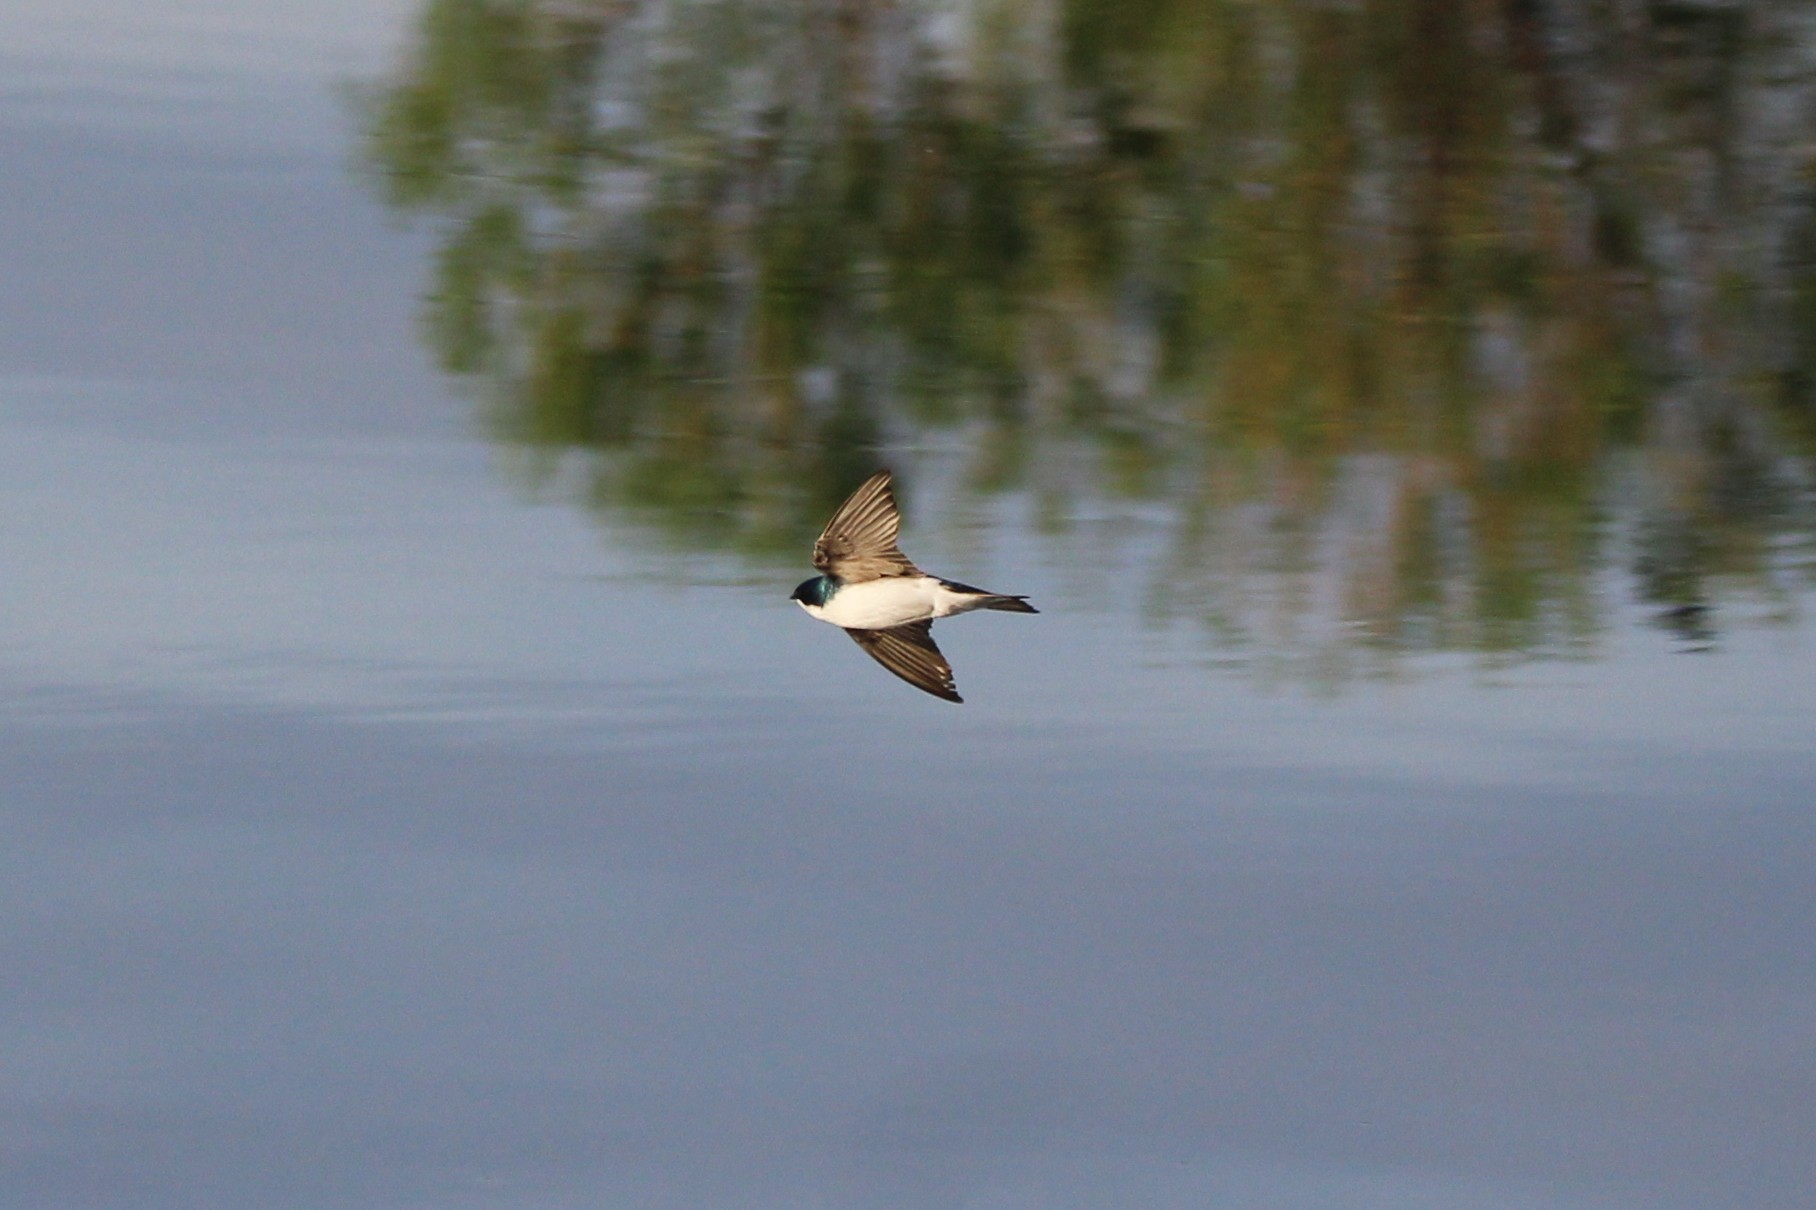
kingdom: Animalia
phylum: Chordata
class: Aves
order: Passeriformes
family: Hirundinidae
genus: Tachycineta
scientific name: Tachycineta bicolor
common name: Tree swallow
